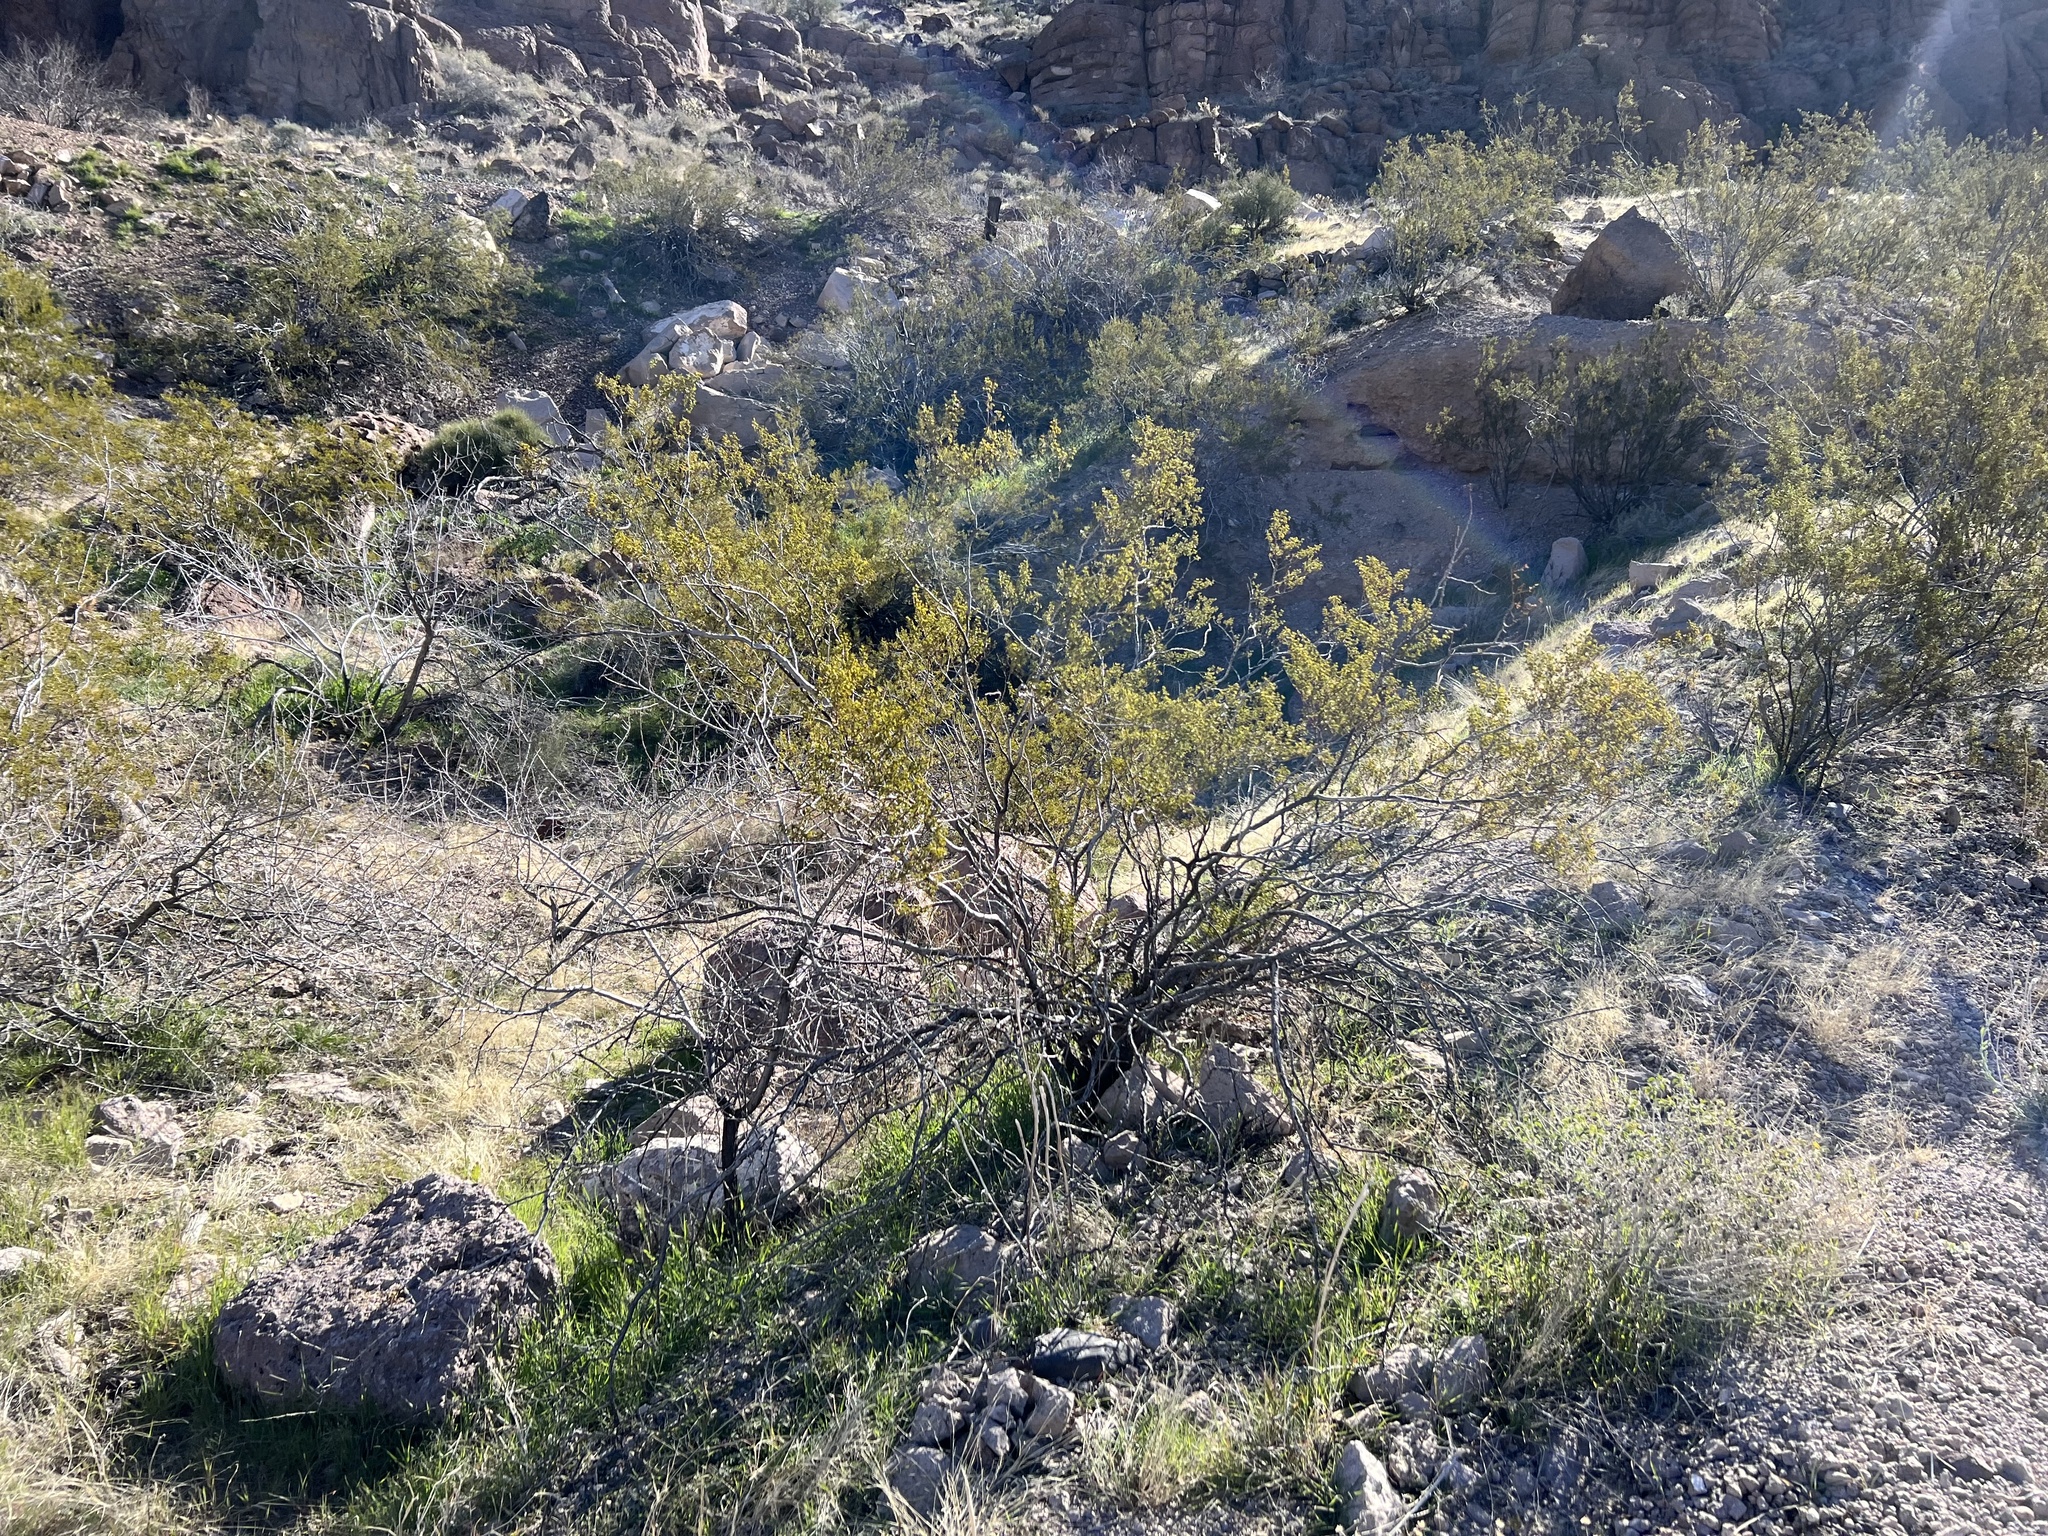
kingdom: Plantae
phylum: Tracheophyta
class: Magnoliopsida
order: Zygophyllales
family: Zygophyllaceae
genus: Larrea
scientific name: Larrea tridentata
